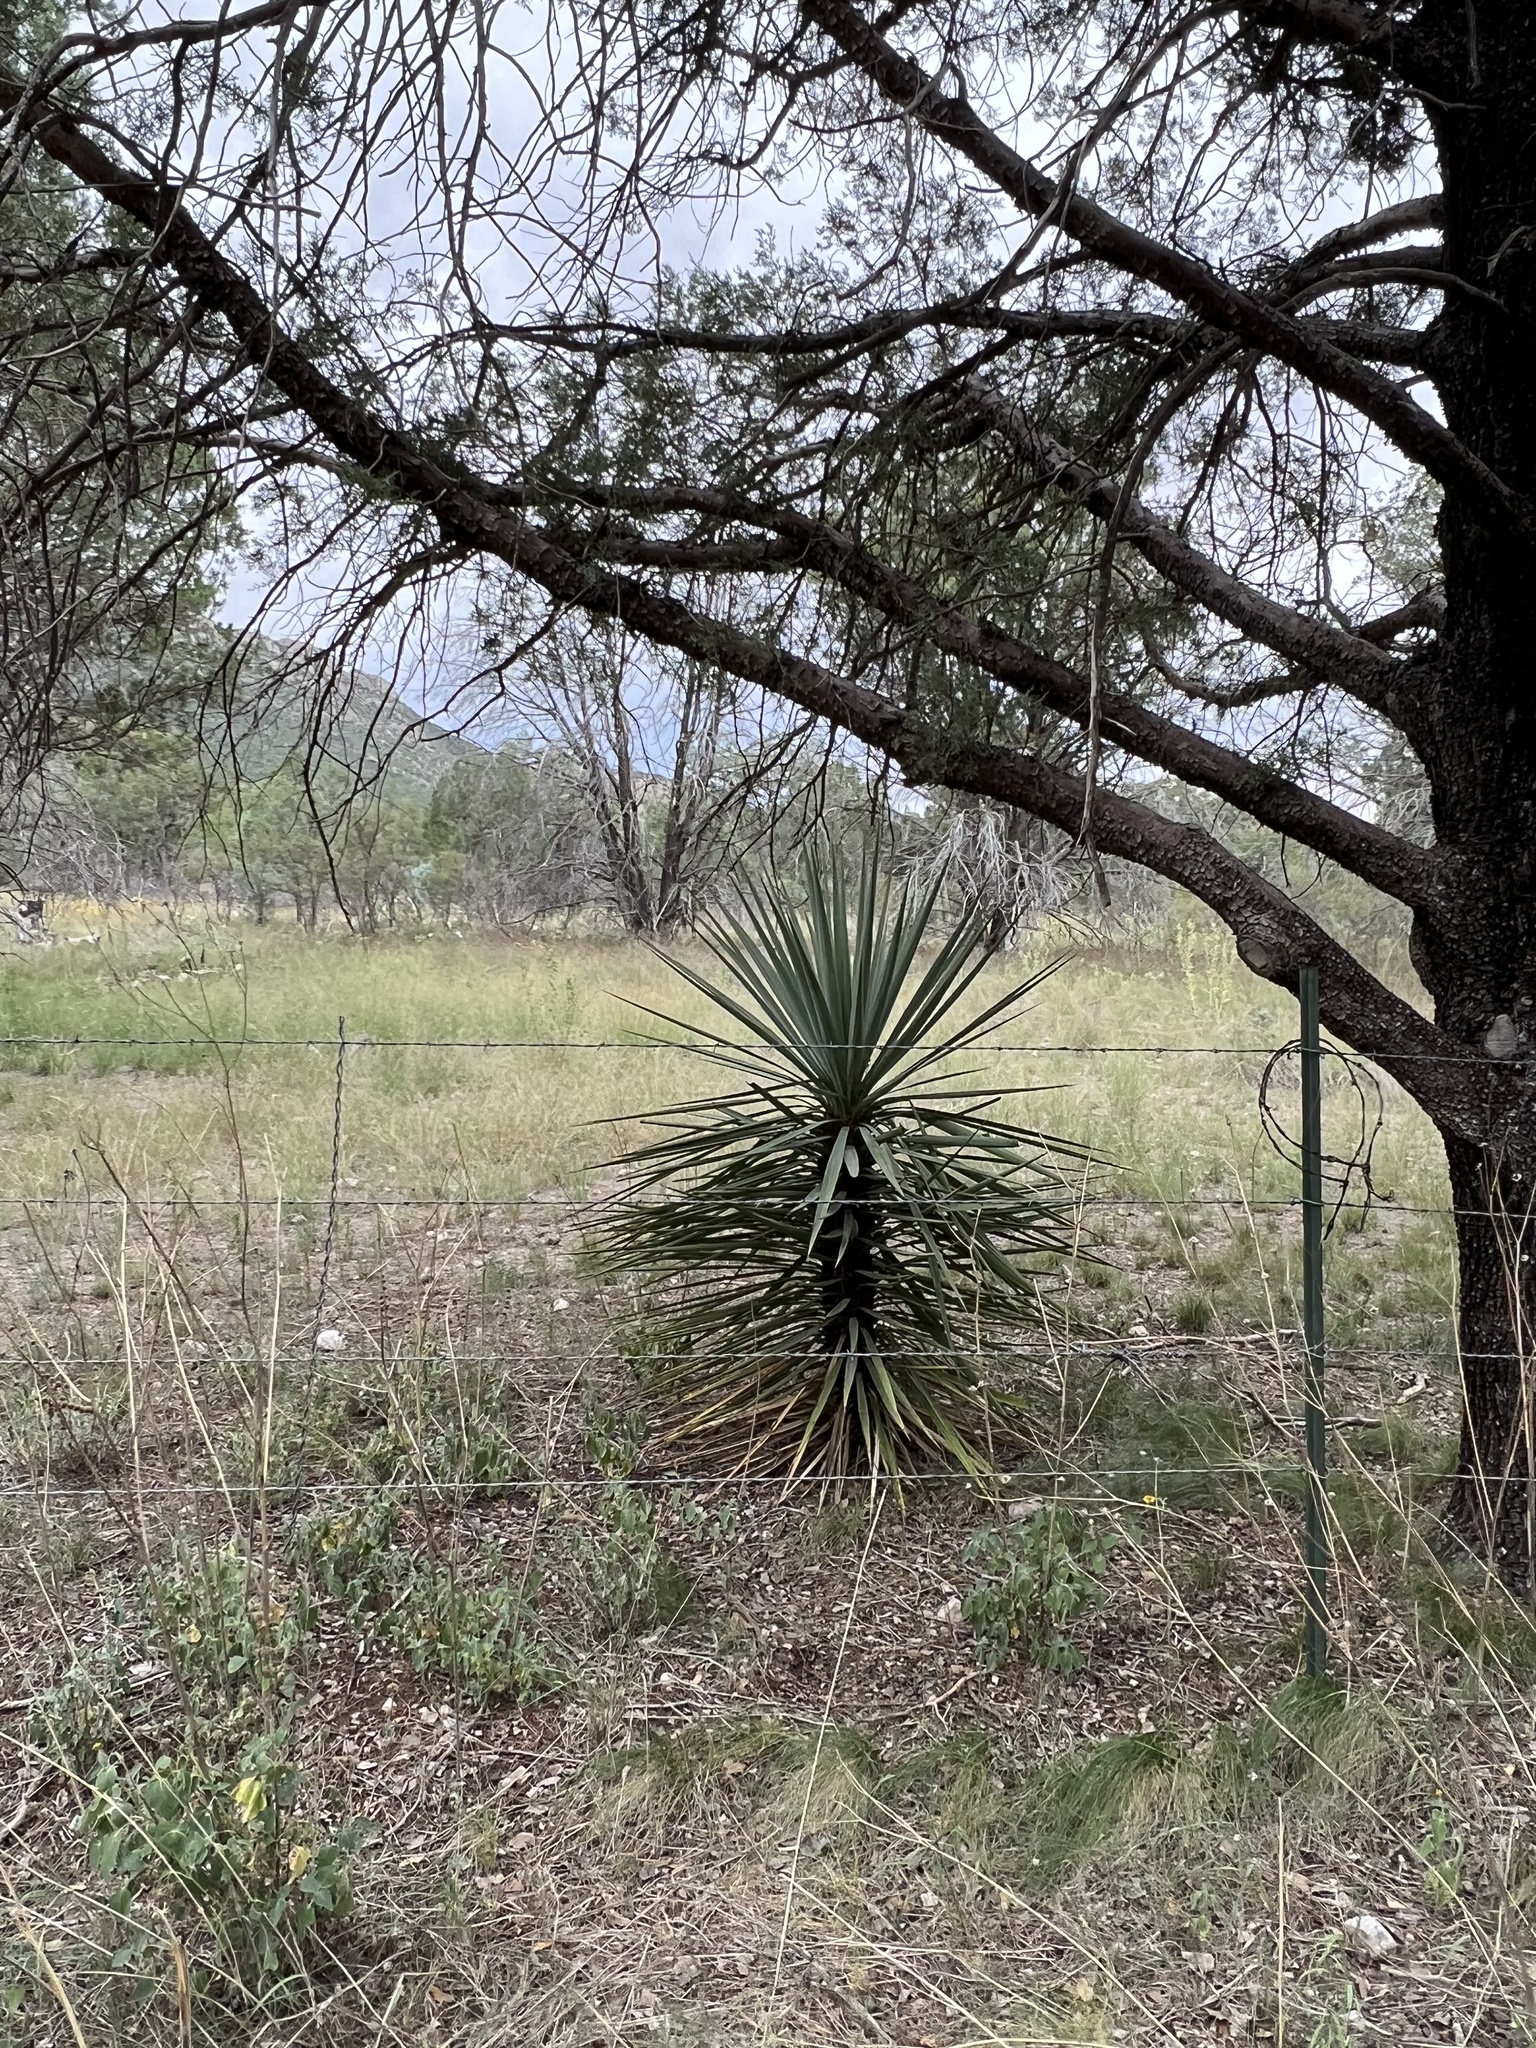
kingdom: Plantae
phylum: Tracheophyta
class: Liliopsida
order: Asparagales
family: Asparagaceae
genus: Yucca
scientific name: Yucca schottii
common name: Hoary yucca
